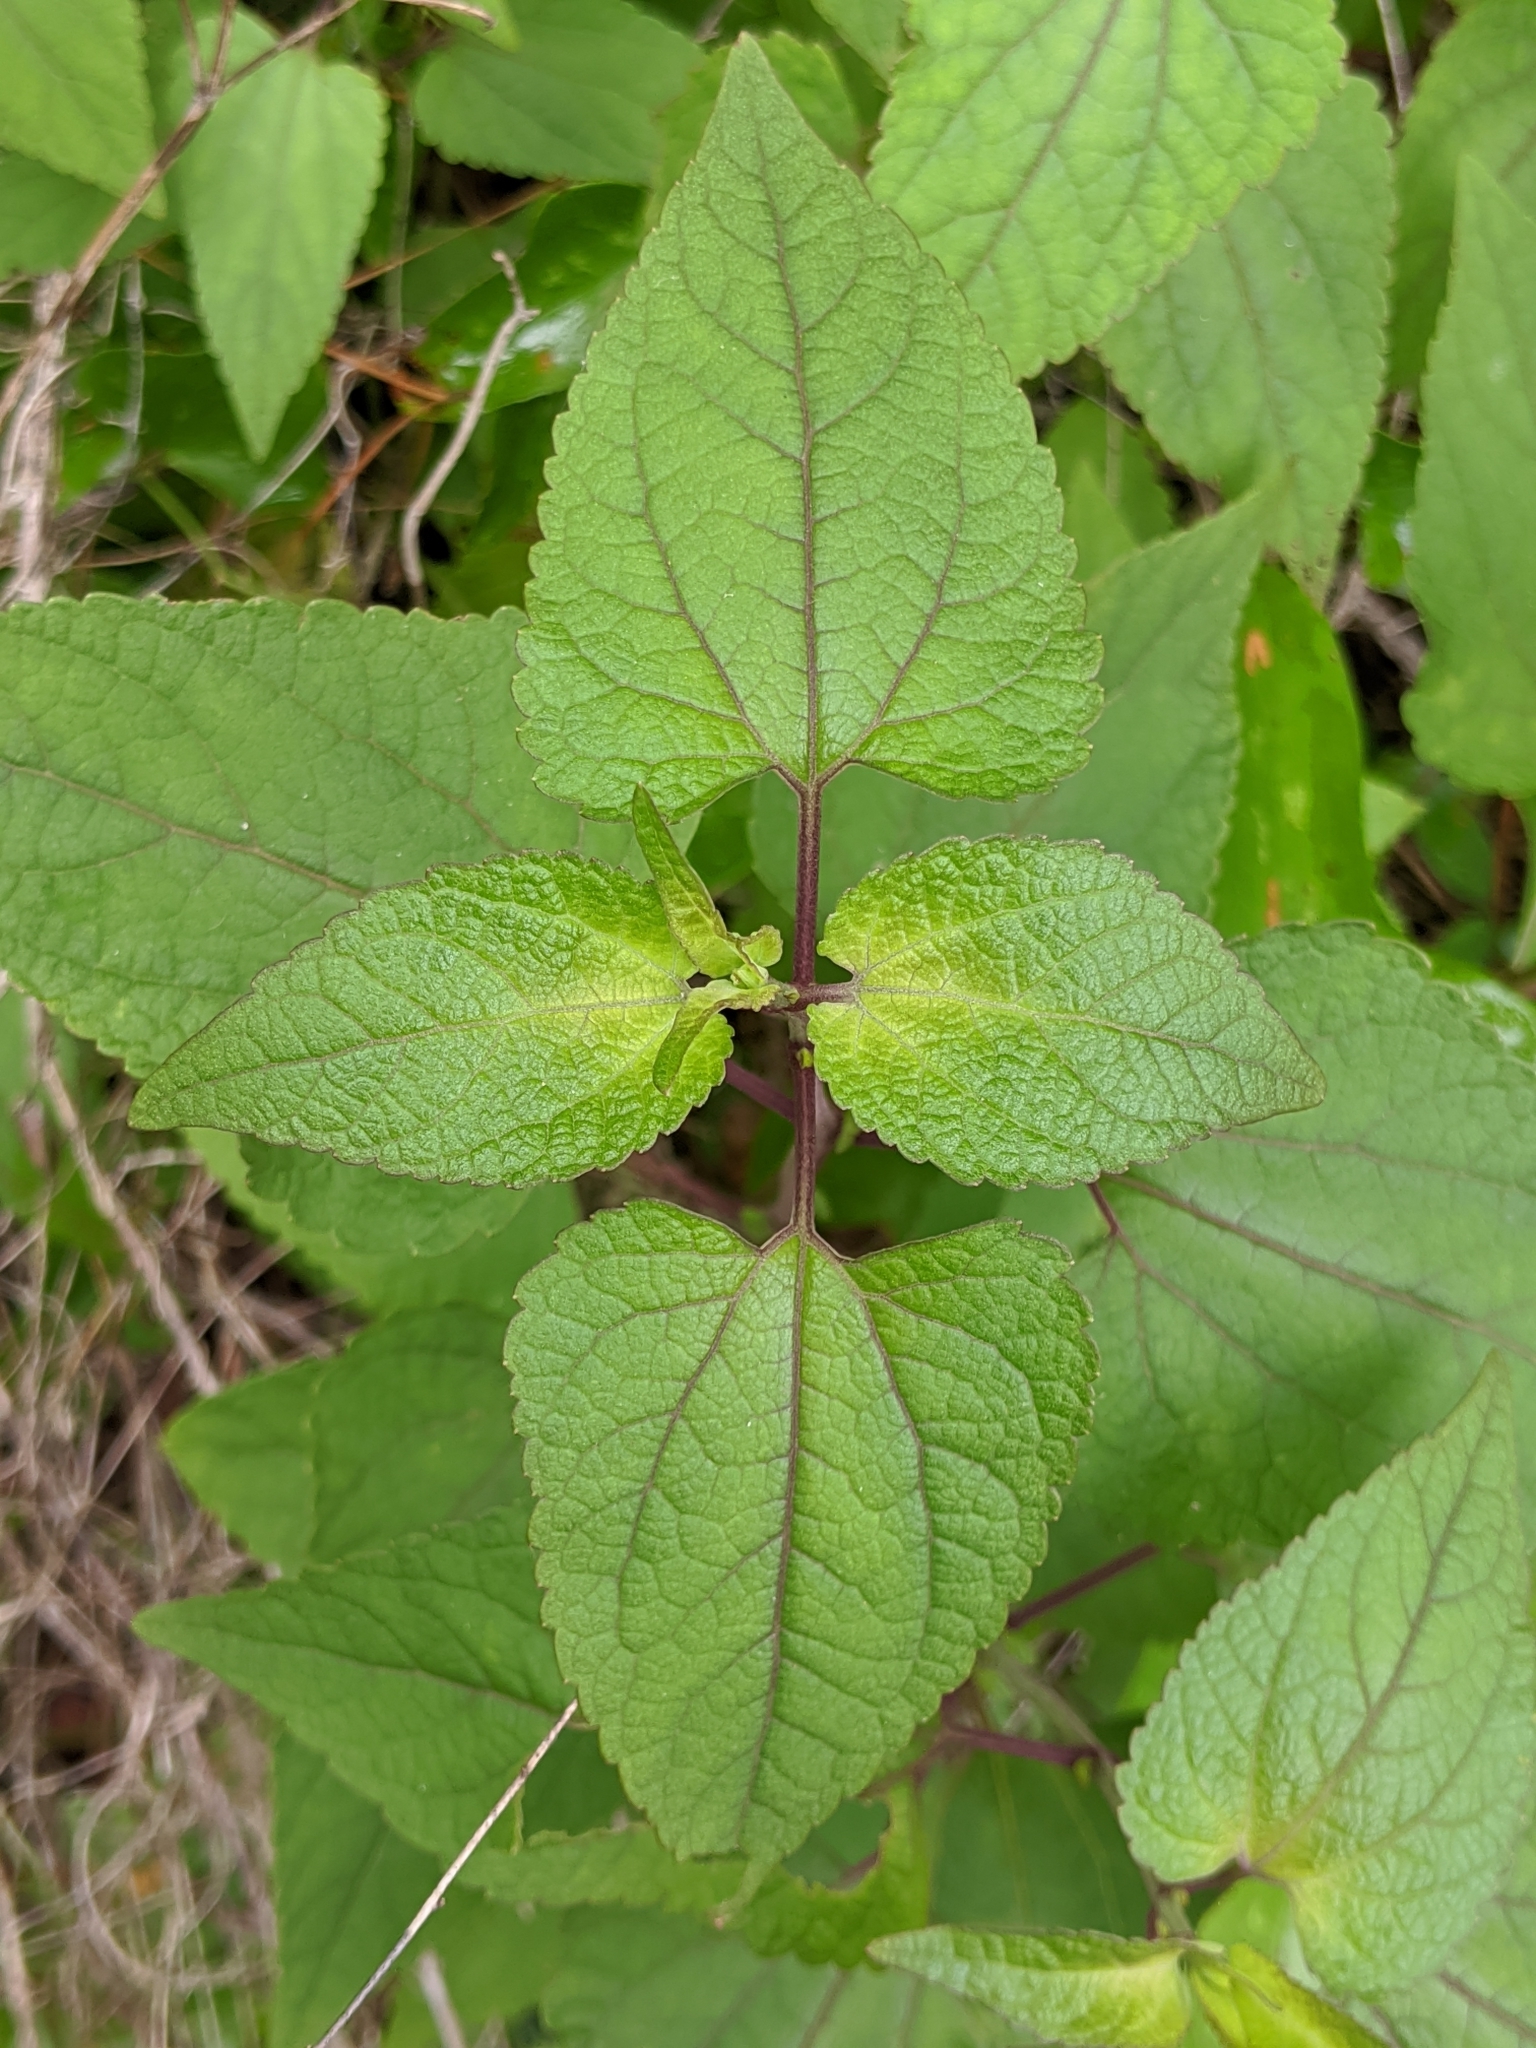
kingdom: Plantae
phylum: Tracheophyta
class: Magnoliopsida
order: Asterales
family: Asteraceae
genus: Brickellia
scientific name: Brickellia cordifolia
